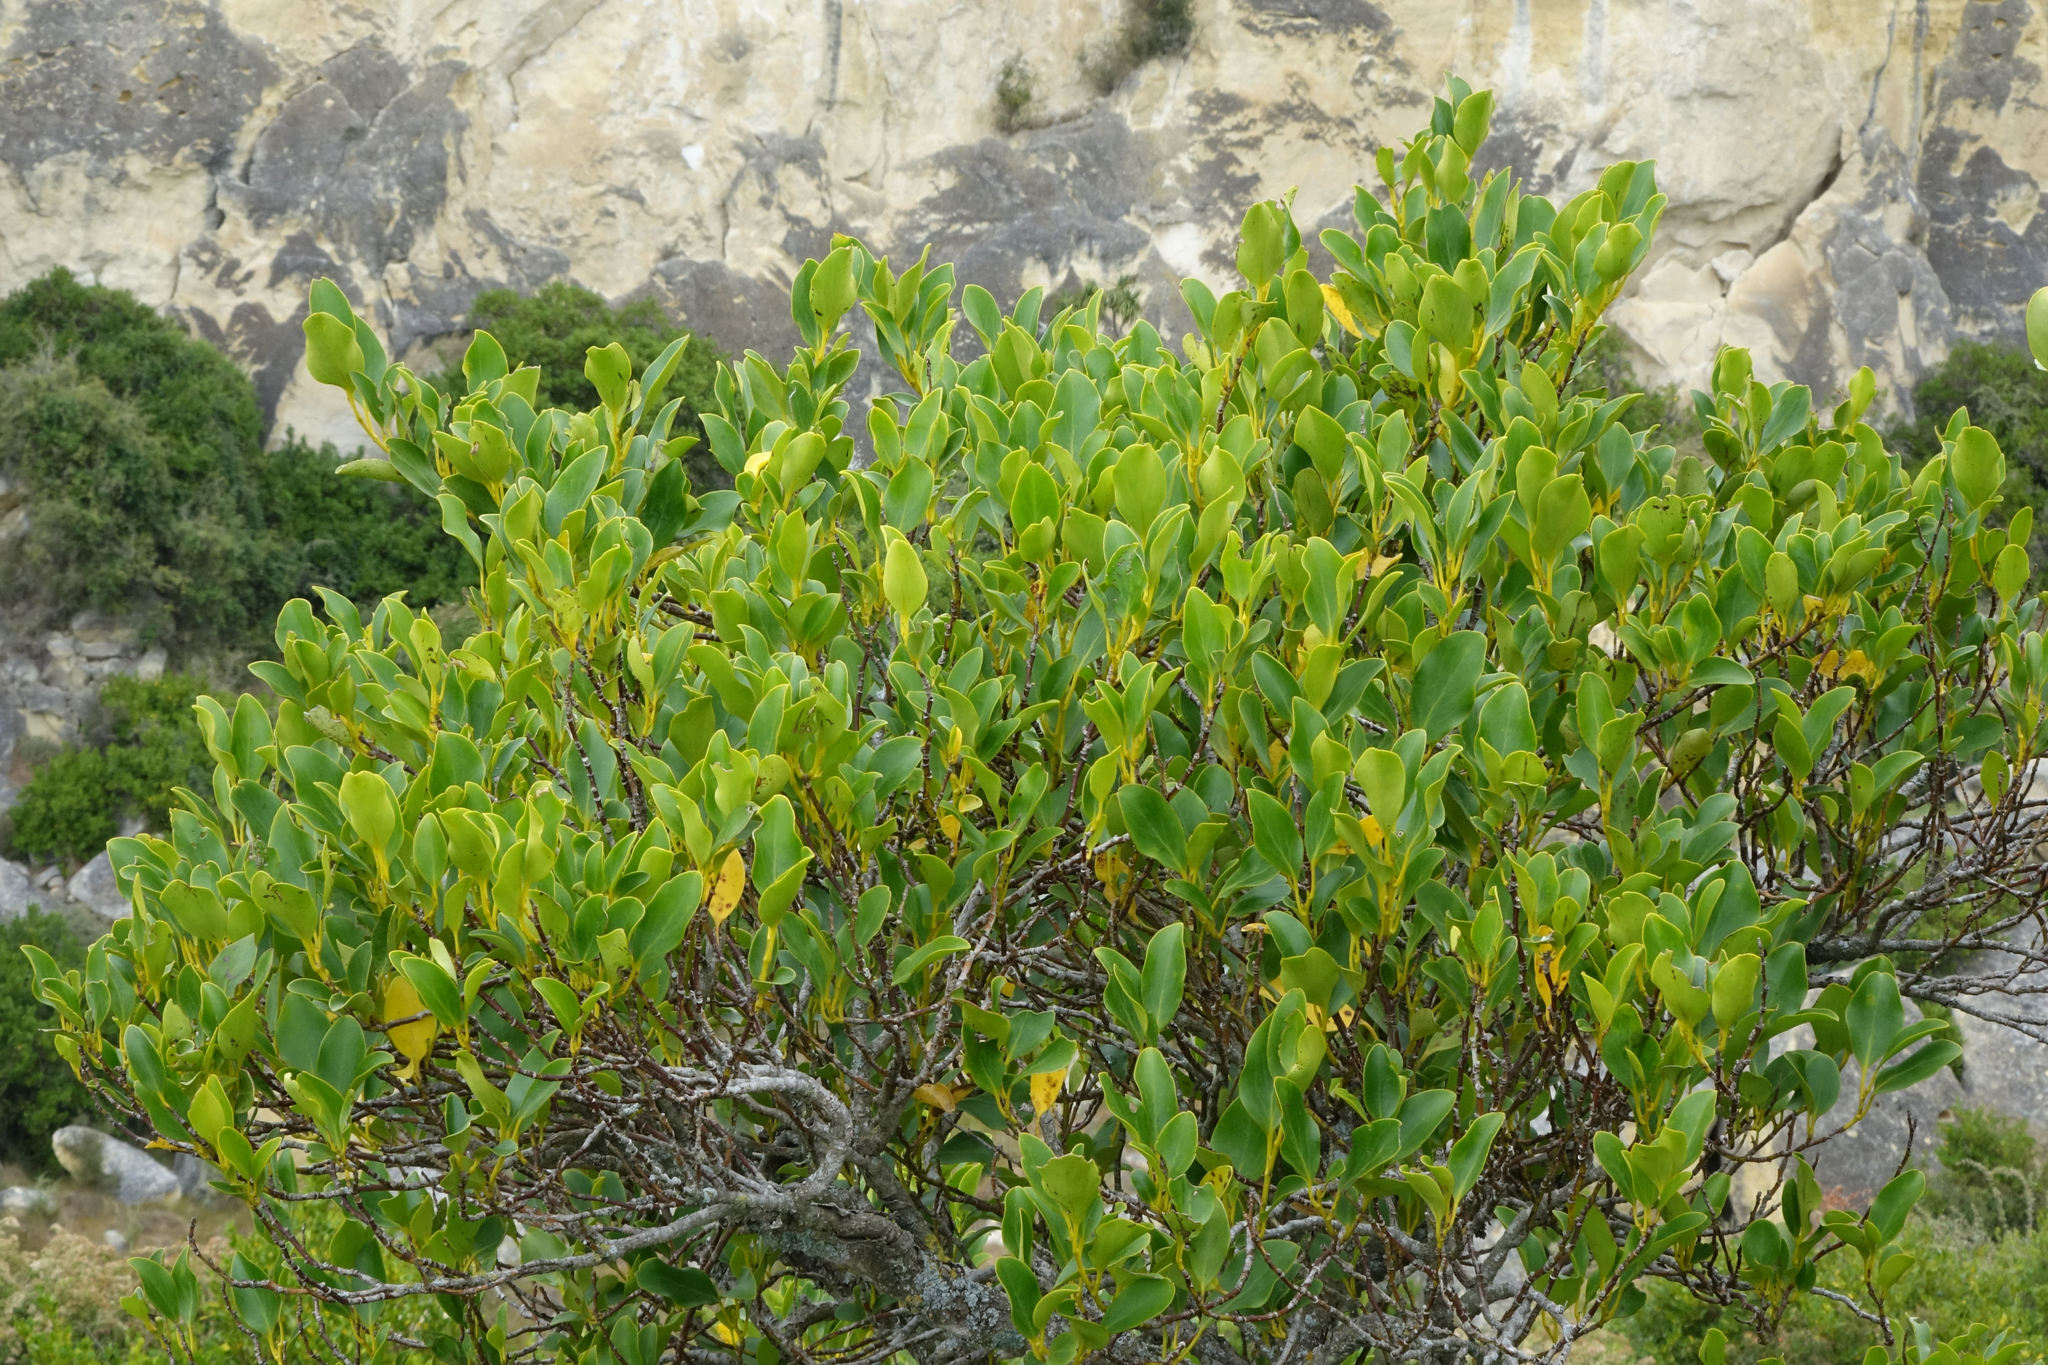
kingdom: Plantae
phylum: Tracheophyta
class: Magnoliopsida
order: Apiales
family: Griseliniaceae
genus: Griselinia
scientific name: Griselinia littoralis
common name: New zealand broadleaf
